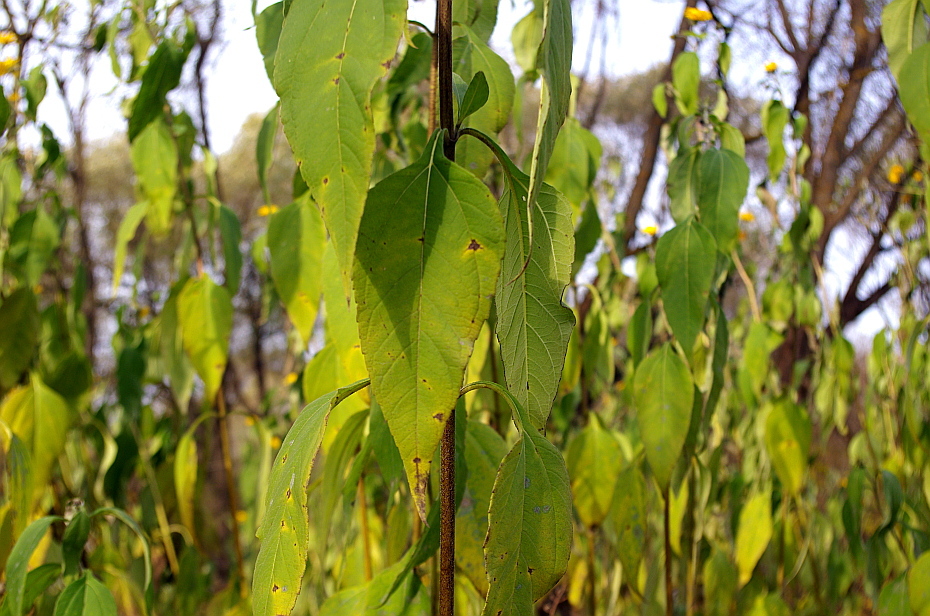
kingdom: Plantae
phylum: Tracheophyta
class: Magnoliopsida
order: Asterales
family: Asteraceae
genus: Helianthus
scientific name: Helianthus tuberosus
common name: Jerusalem artichoke
